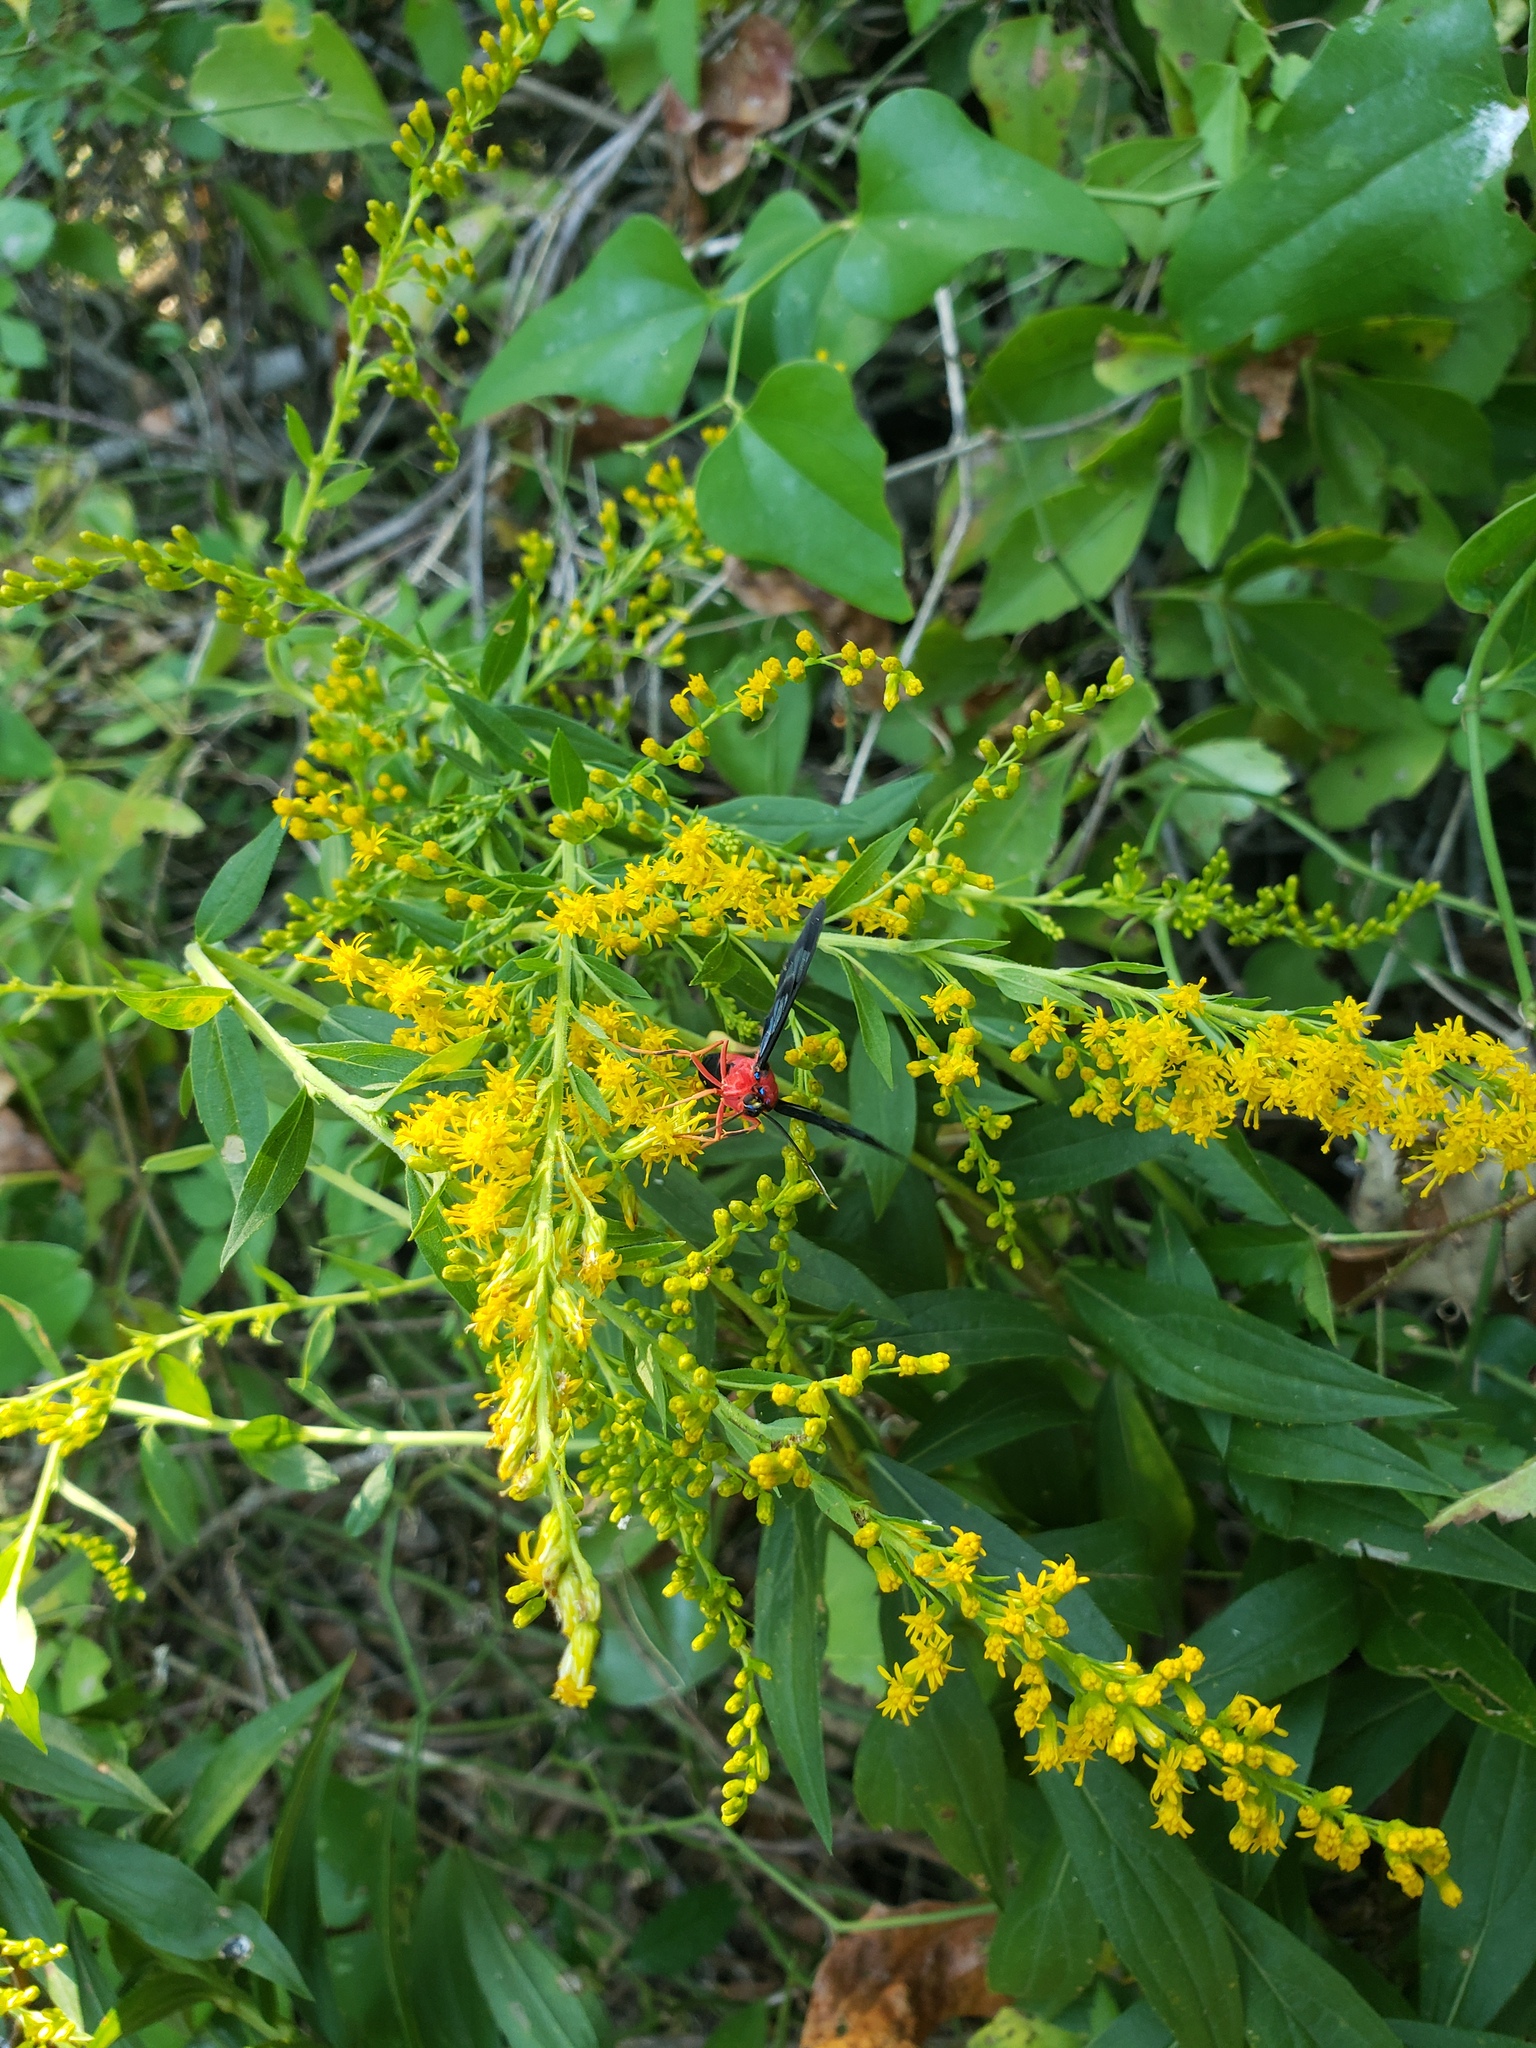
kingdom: Animalia
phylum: Arthropoda
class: Insecta
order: Lepidoptera
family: Erebidae
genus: Cosmosoma
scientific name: Cosmosoma myrodora
